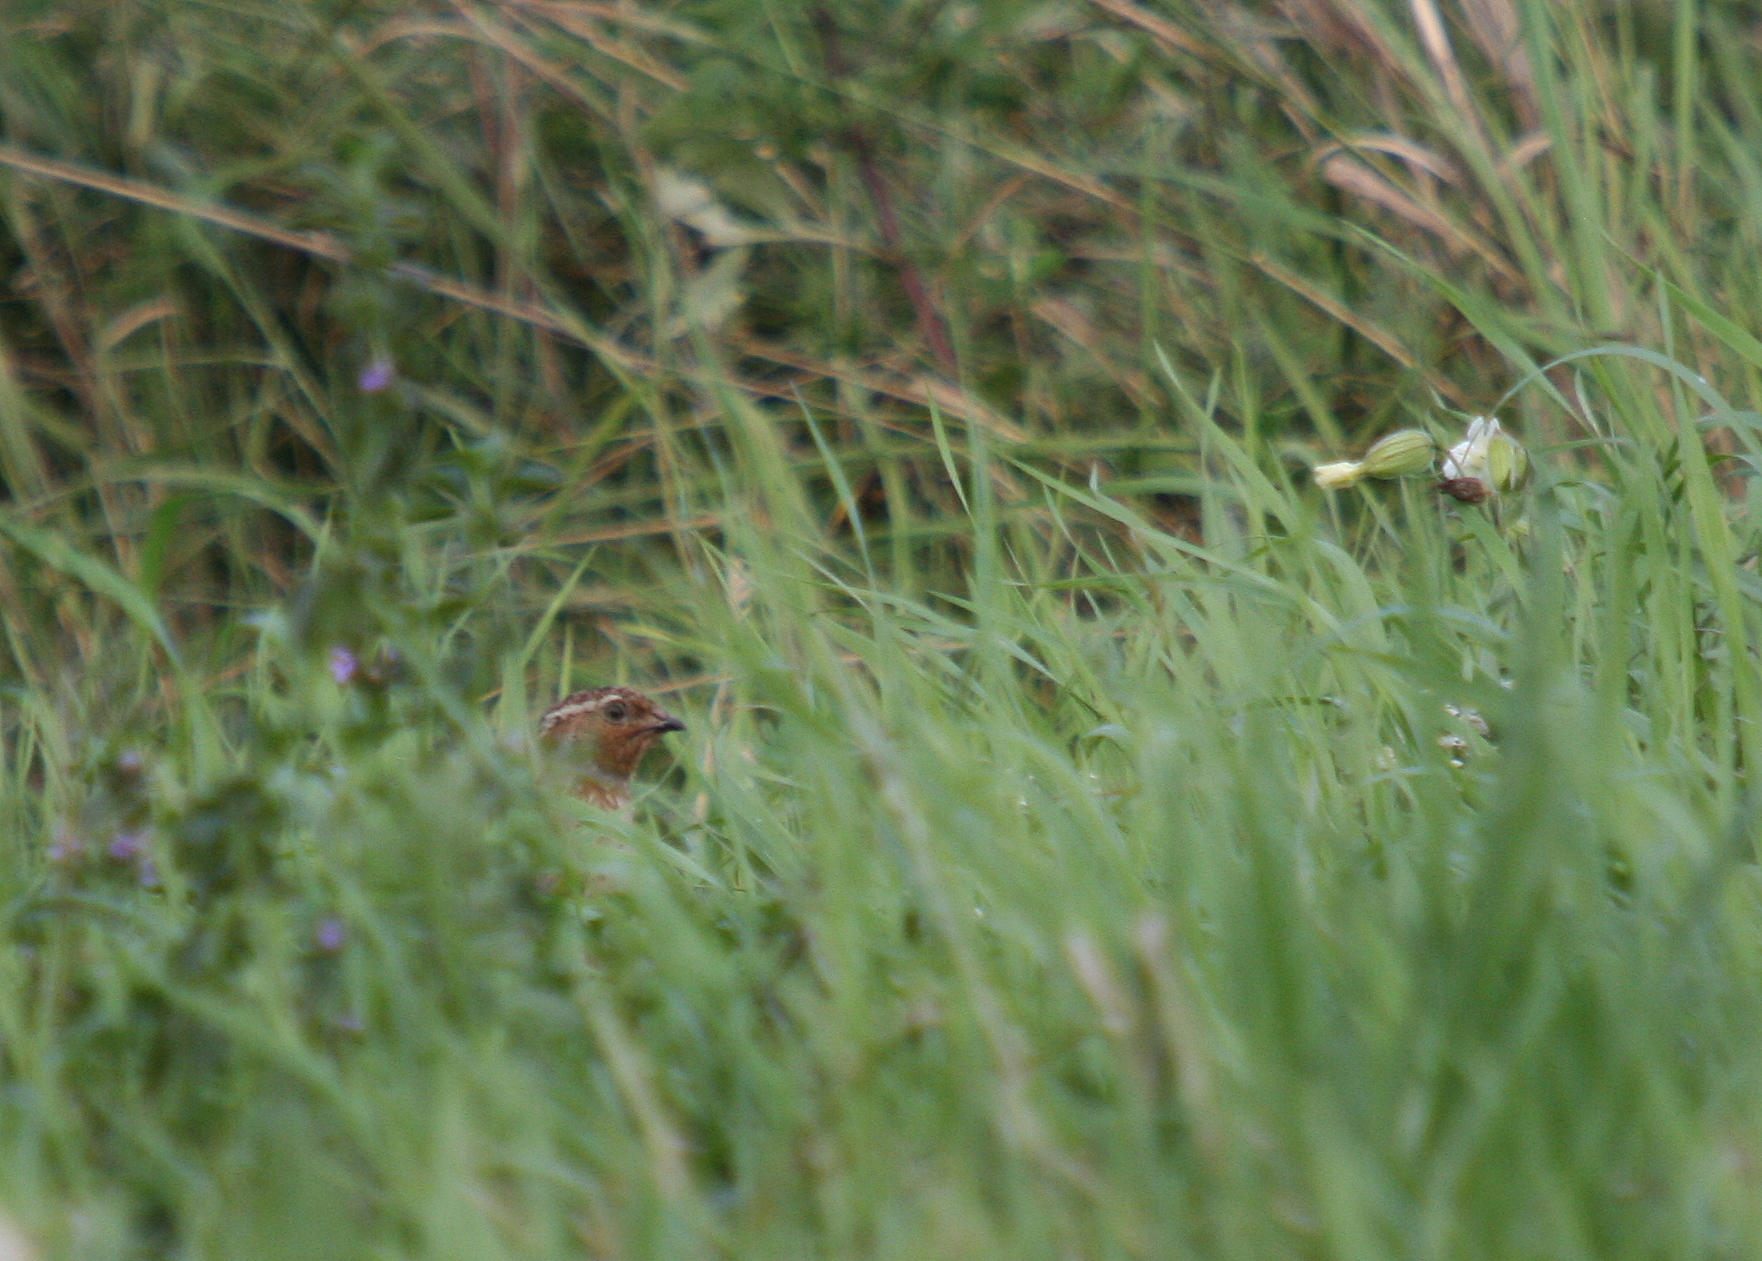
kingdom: Animalia
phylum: Chordata
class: Aves
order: Galliformes
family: Phasianidae
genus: Coturnix
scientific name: Coturnix coturnix
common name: Common quail
